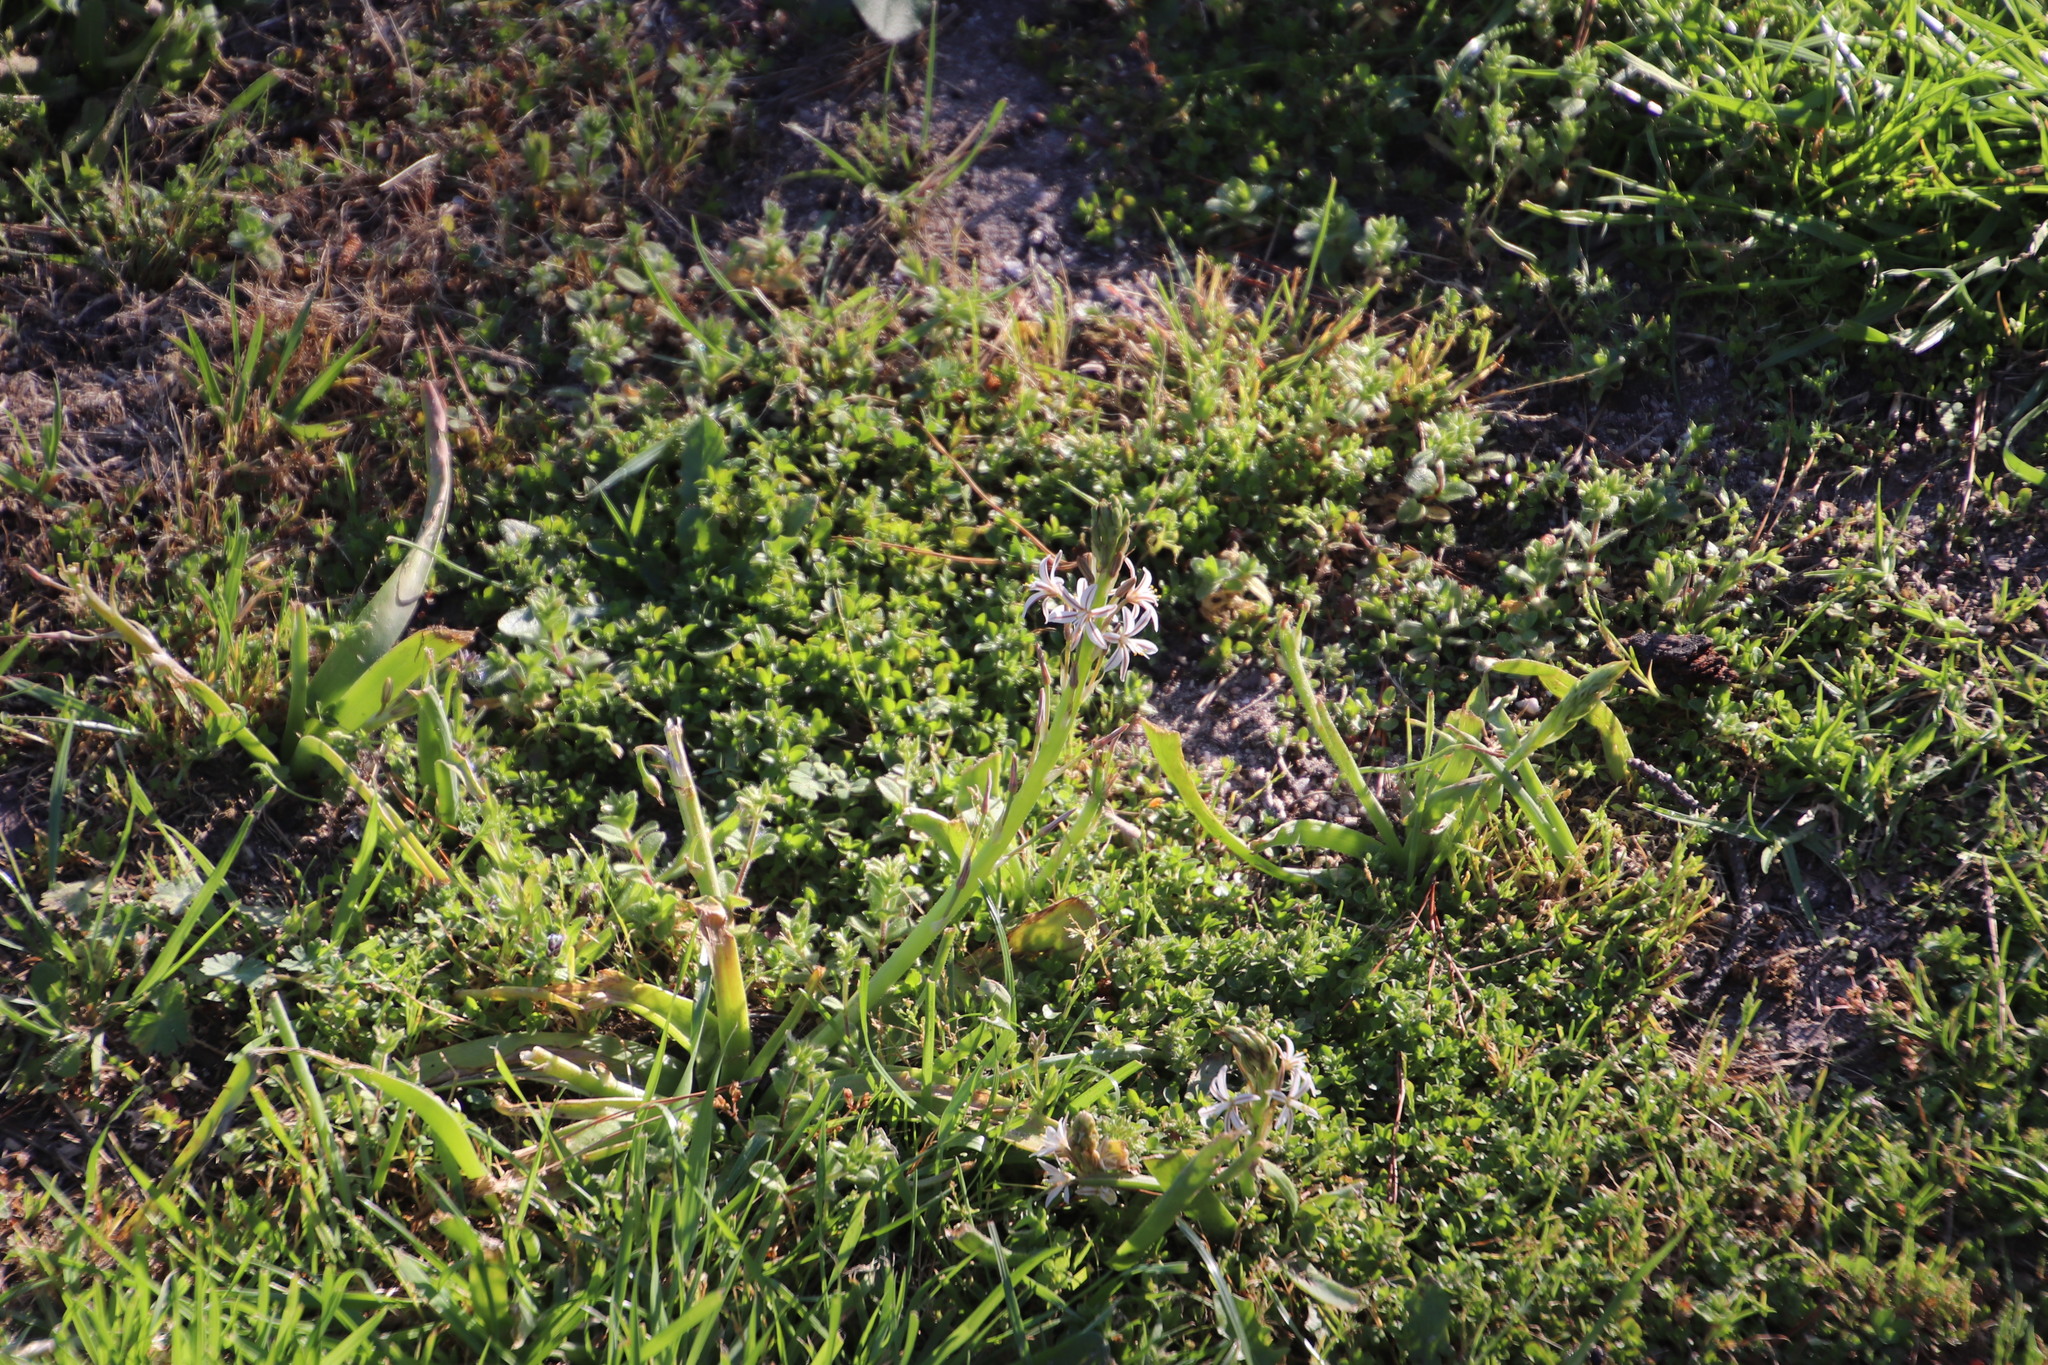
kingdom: Plantae
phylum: Tracheophyta
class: Liliopsida
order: Asparagales
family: Asphodelaceae
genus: Trachyandra
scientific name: Trachyandra ciliata
